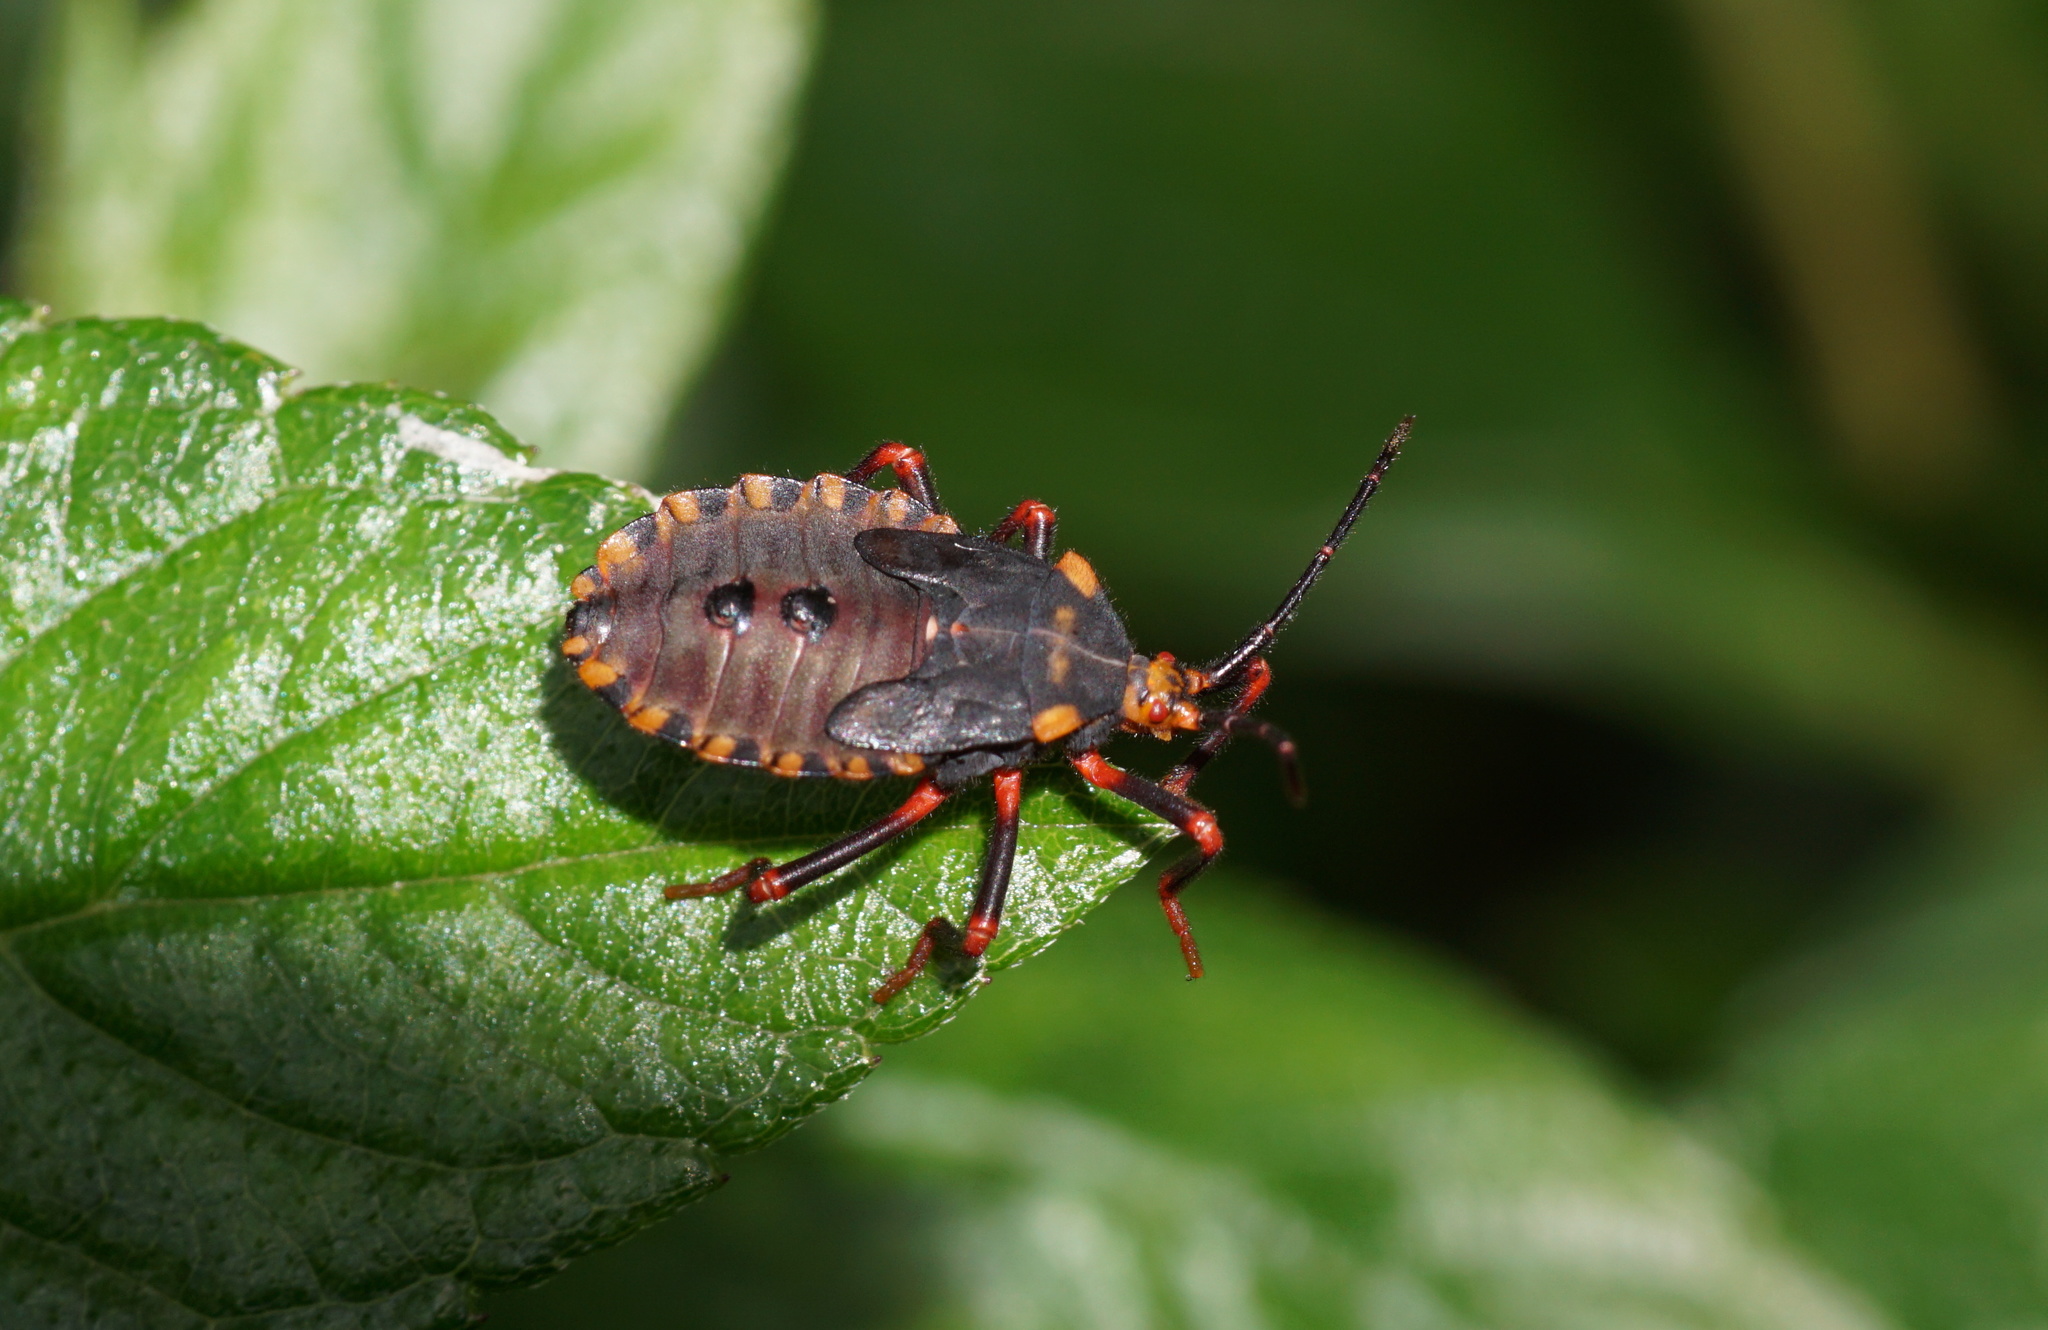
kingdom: Animalia
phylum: Arthropoda
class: Insecta
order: Hemiptera
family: Coreidae
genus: Spartocera
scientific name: Spartocera batatas
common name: Giant sweetpotato bug
